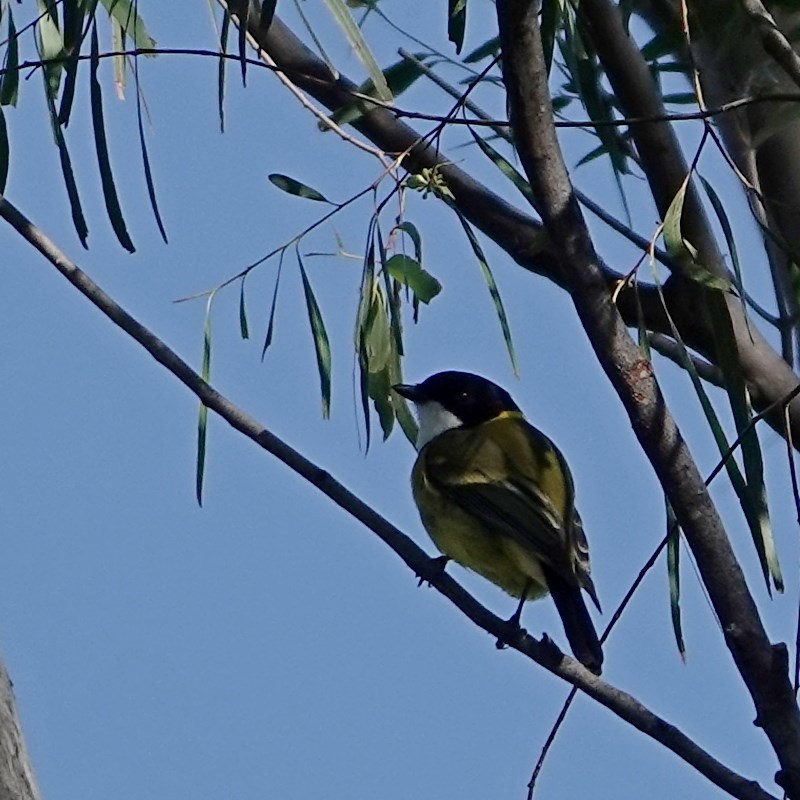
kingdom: Animalia
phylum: Chordata
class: Aves
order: Passeriformes
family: Pachycephalidae
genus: Pachycephala
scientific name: Pachycephala pectoralis
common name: Australian golden whistler
